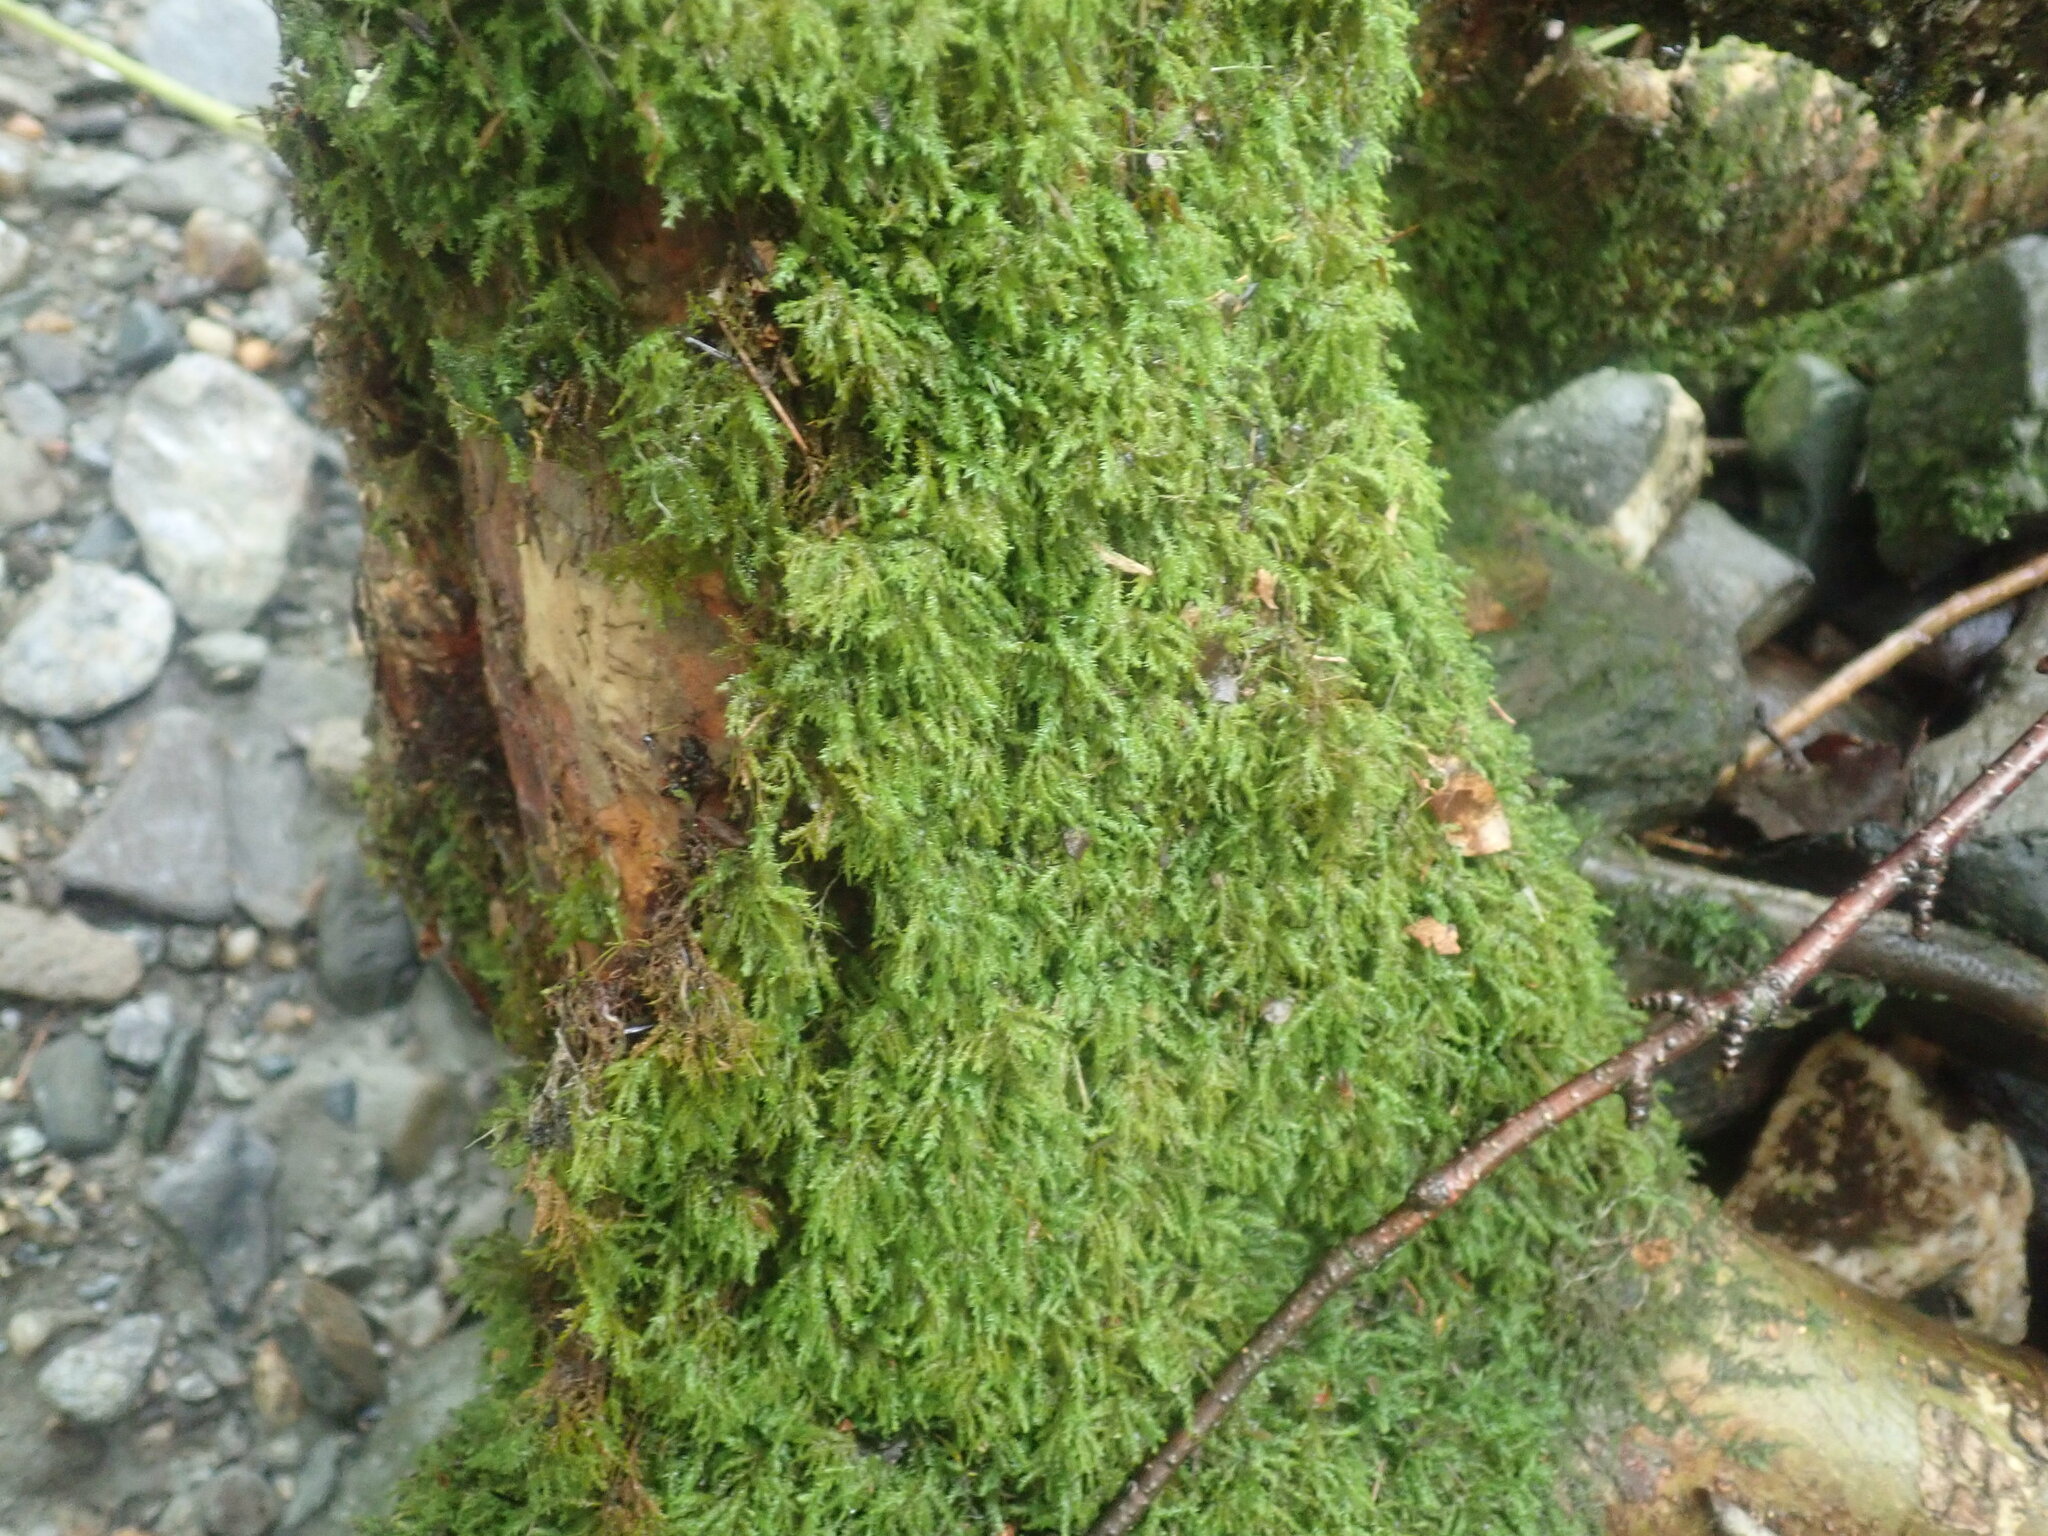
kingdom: Plantae
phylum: Bryophyta
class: Bryopsida
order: Hypnales
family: Neckeraceae
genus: Pseudanomodon
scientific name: Pseudanomodon attenuatus
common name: Tree-skirt moss
